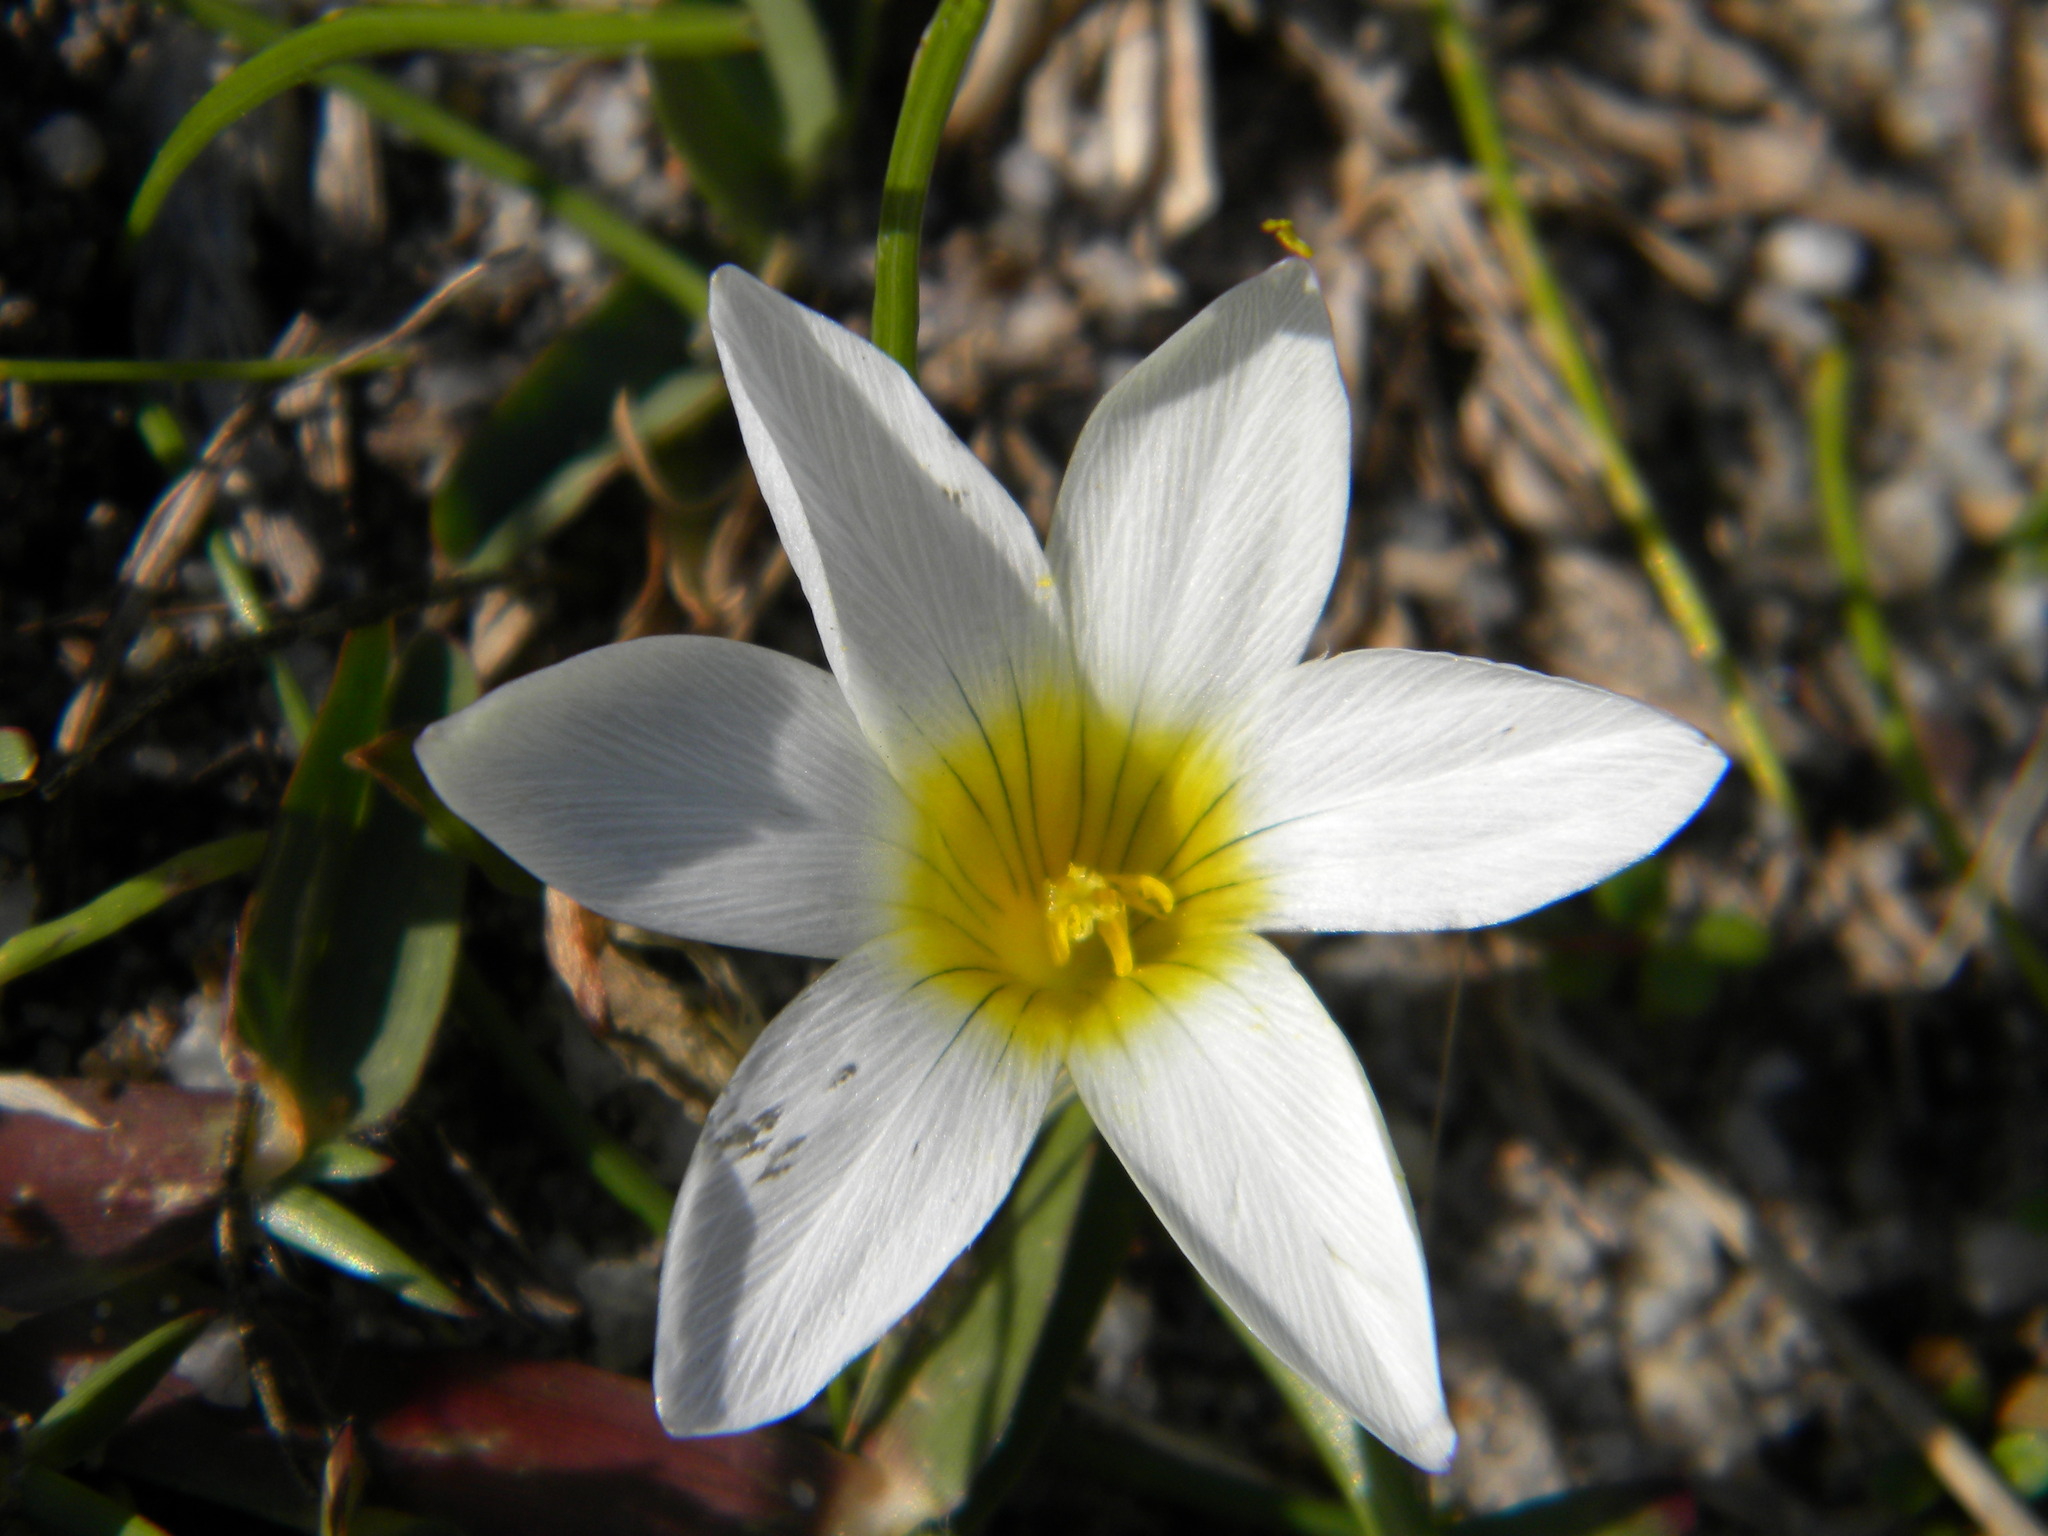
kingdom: Plantae
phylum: Tracheophyta
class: Liliopsida
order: Asparagales
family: Iridaceae
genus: Romulea
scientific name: Romulea flava
